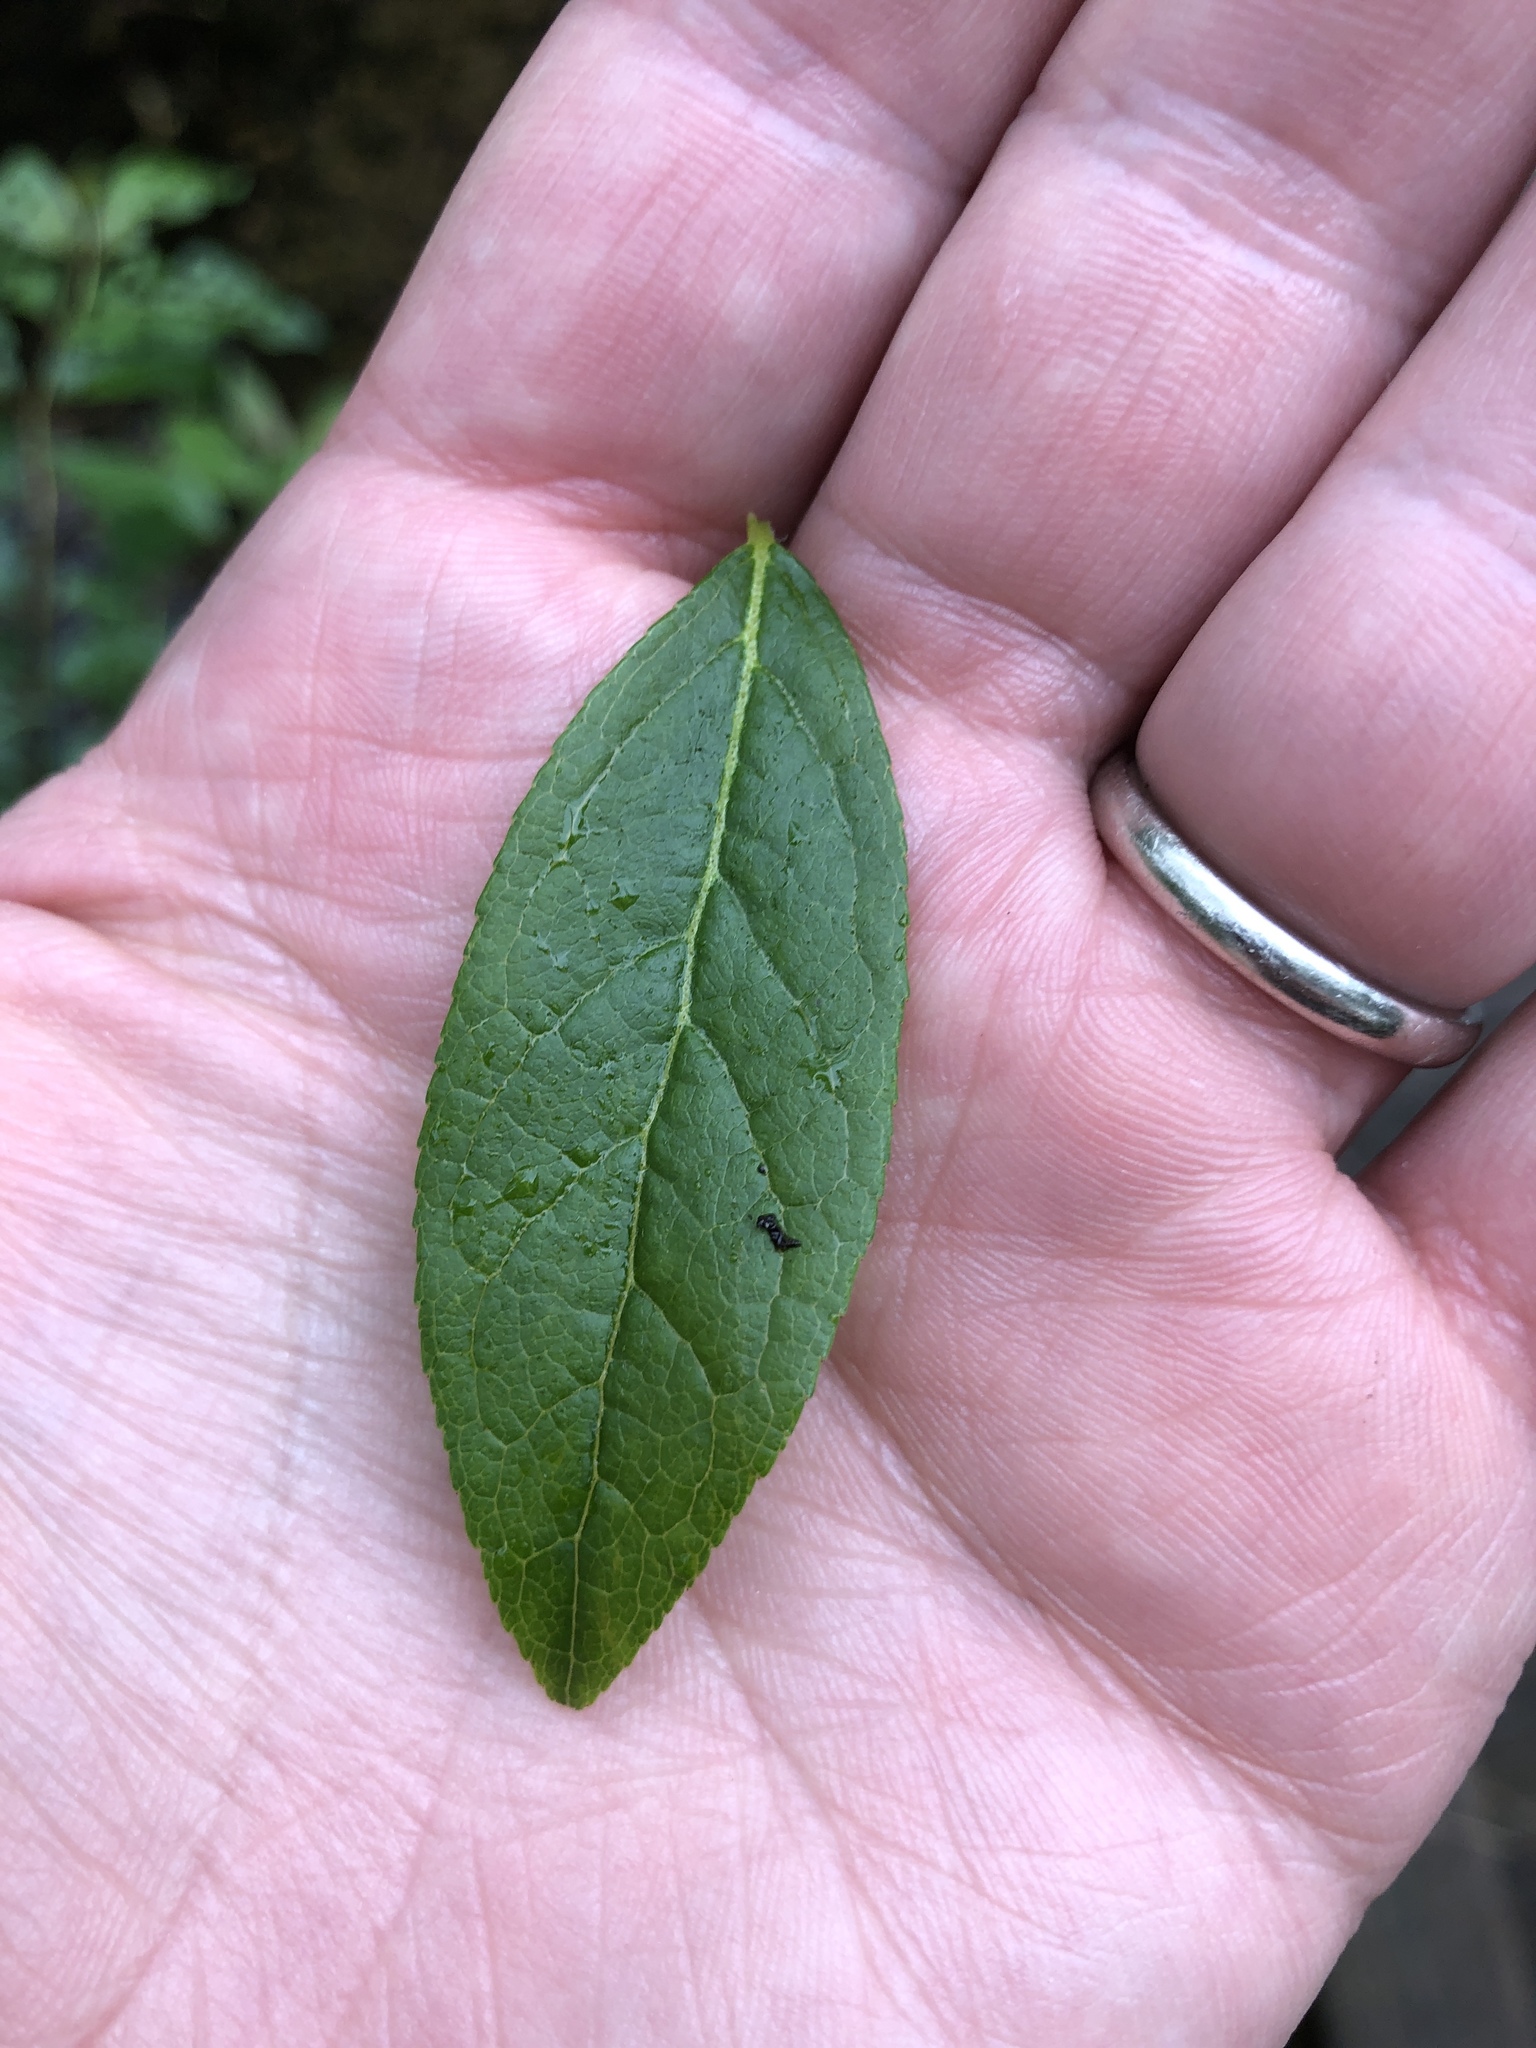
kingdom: Plantae
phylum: Tracheophyta
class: Magnoliopsida
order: Ericales
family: Ericaceae
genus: Eubotrys
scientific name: Eubotrys racemosa
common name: Fetterbush
